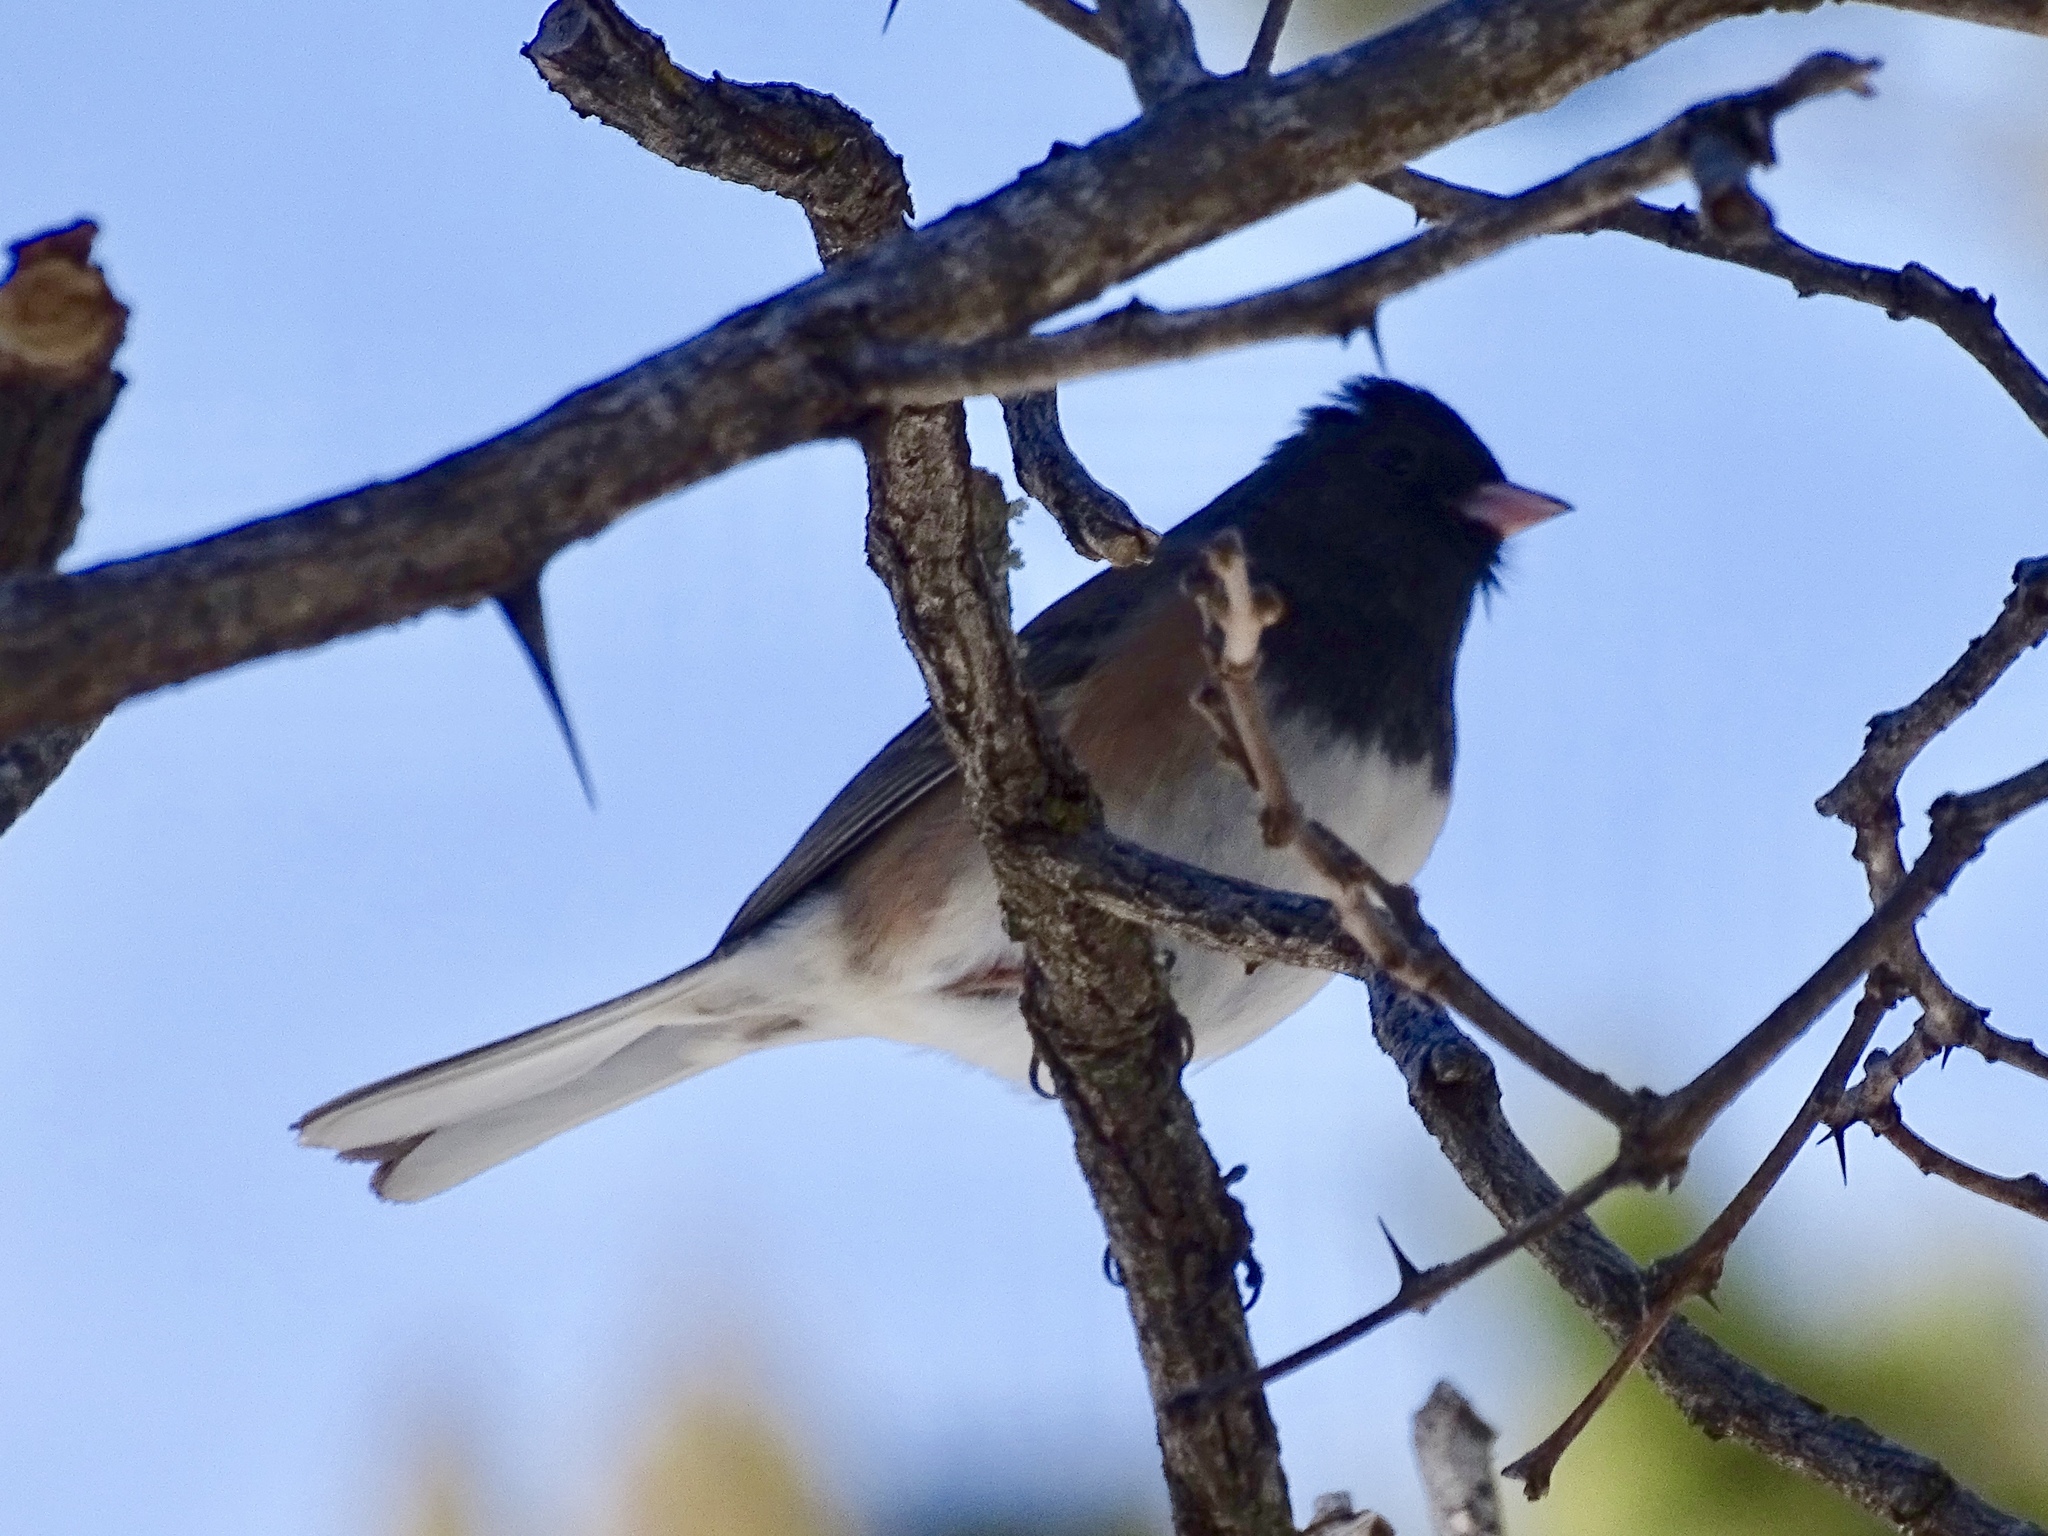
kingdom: Animalia
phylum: Chordata
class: Aves
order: Passeriformes
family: Passerellidae
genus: Junco
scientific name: Junco hyemalis
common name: Dark-eyed junco
